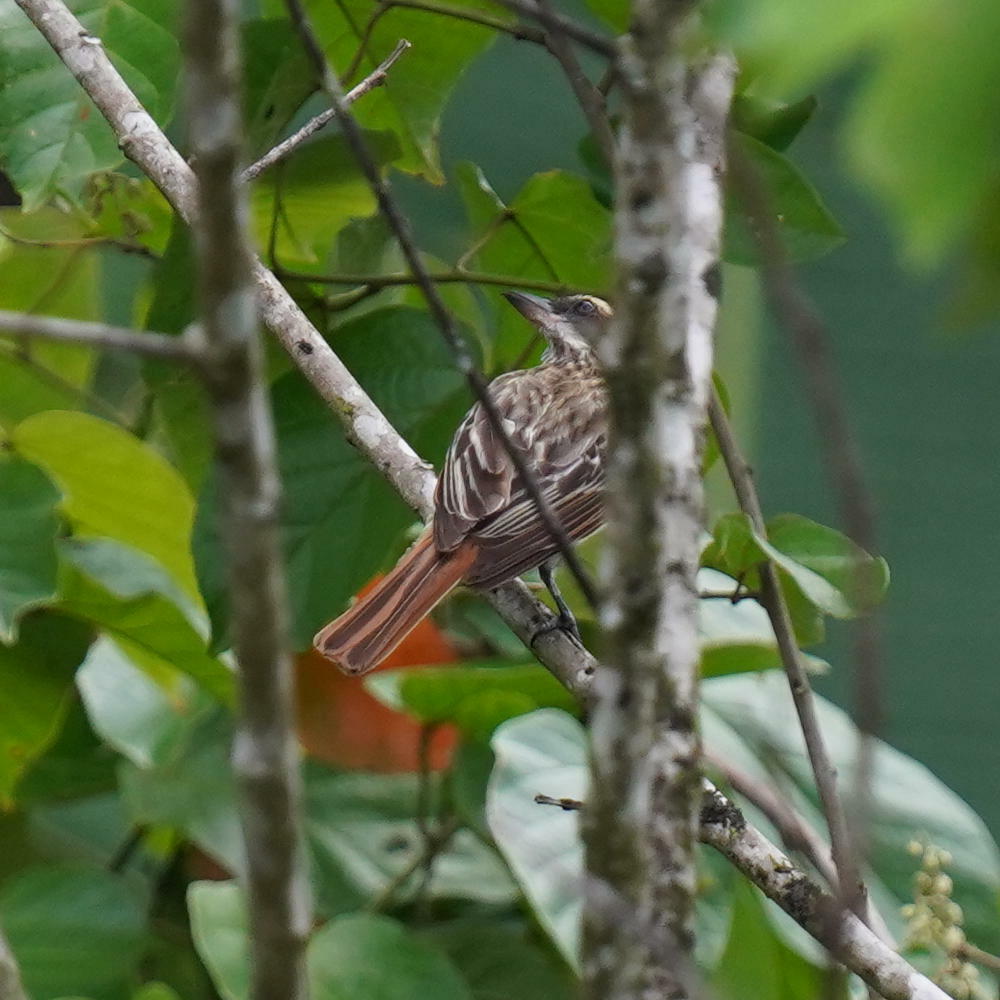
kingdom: Animalia
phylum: Chordata
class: Aves
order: Passeriformes
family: Tyrannidae
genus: Myiodynastes
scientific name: Myiodynastes maculatus
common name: Streaked flycatcher
